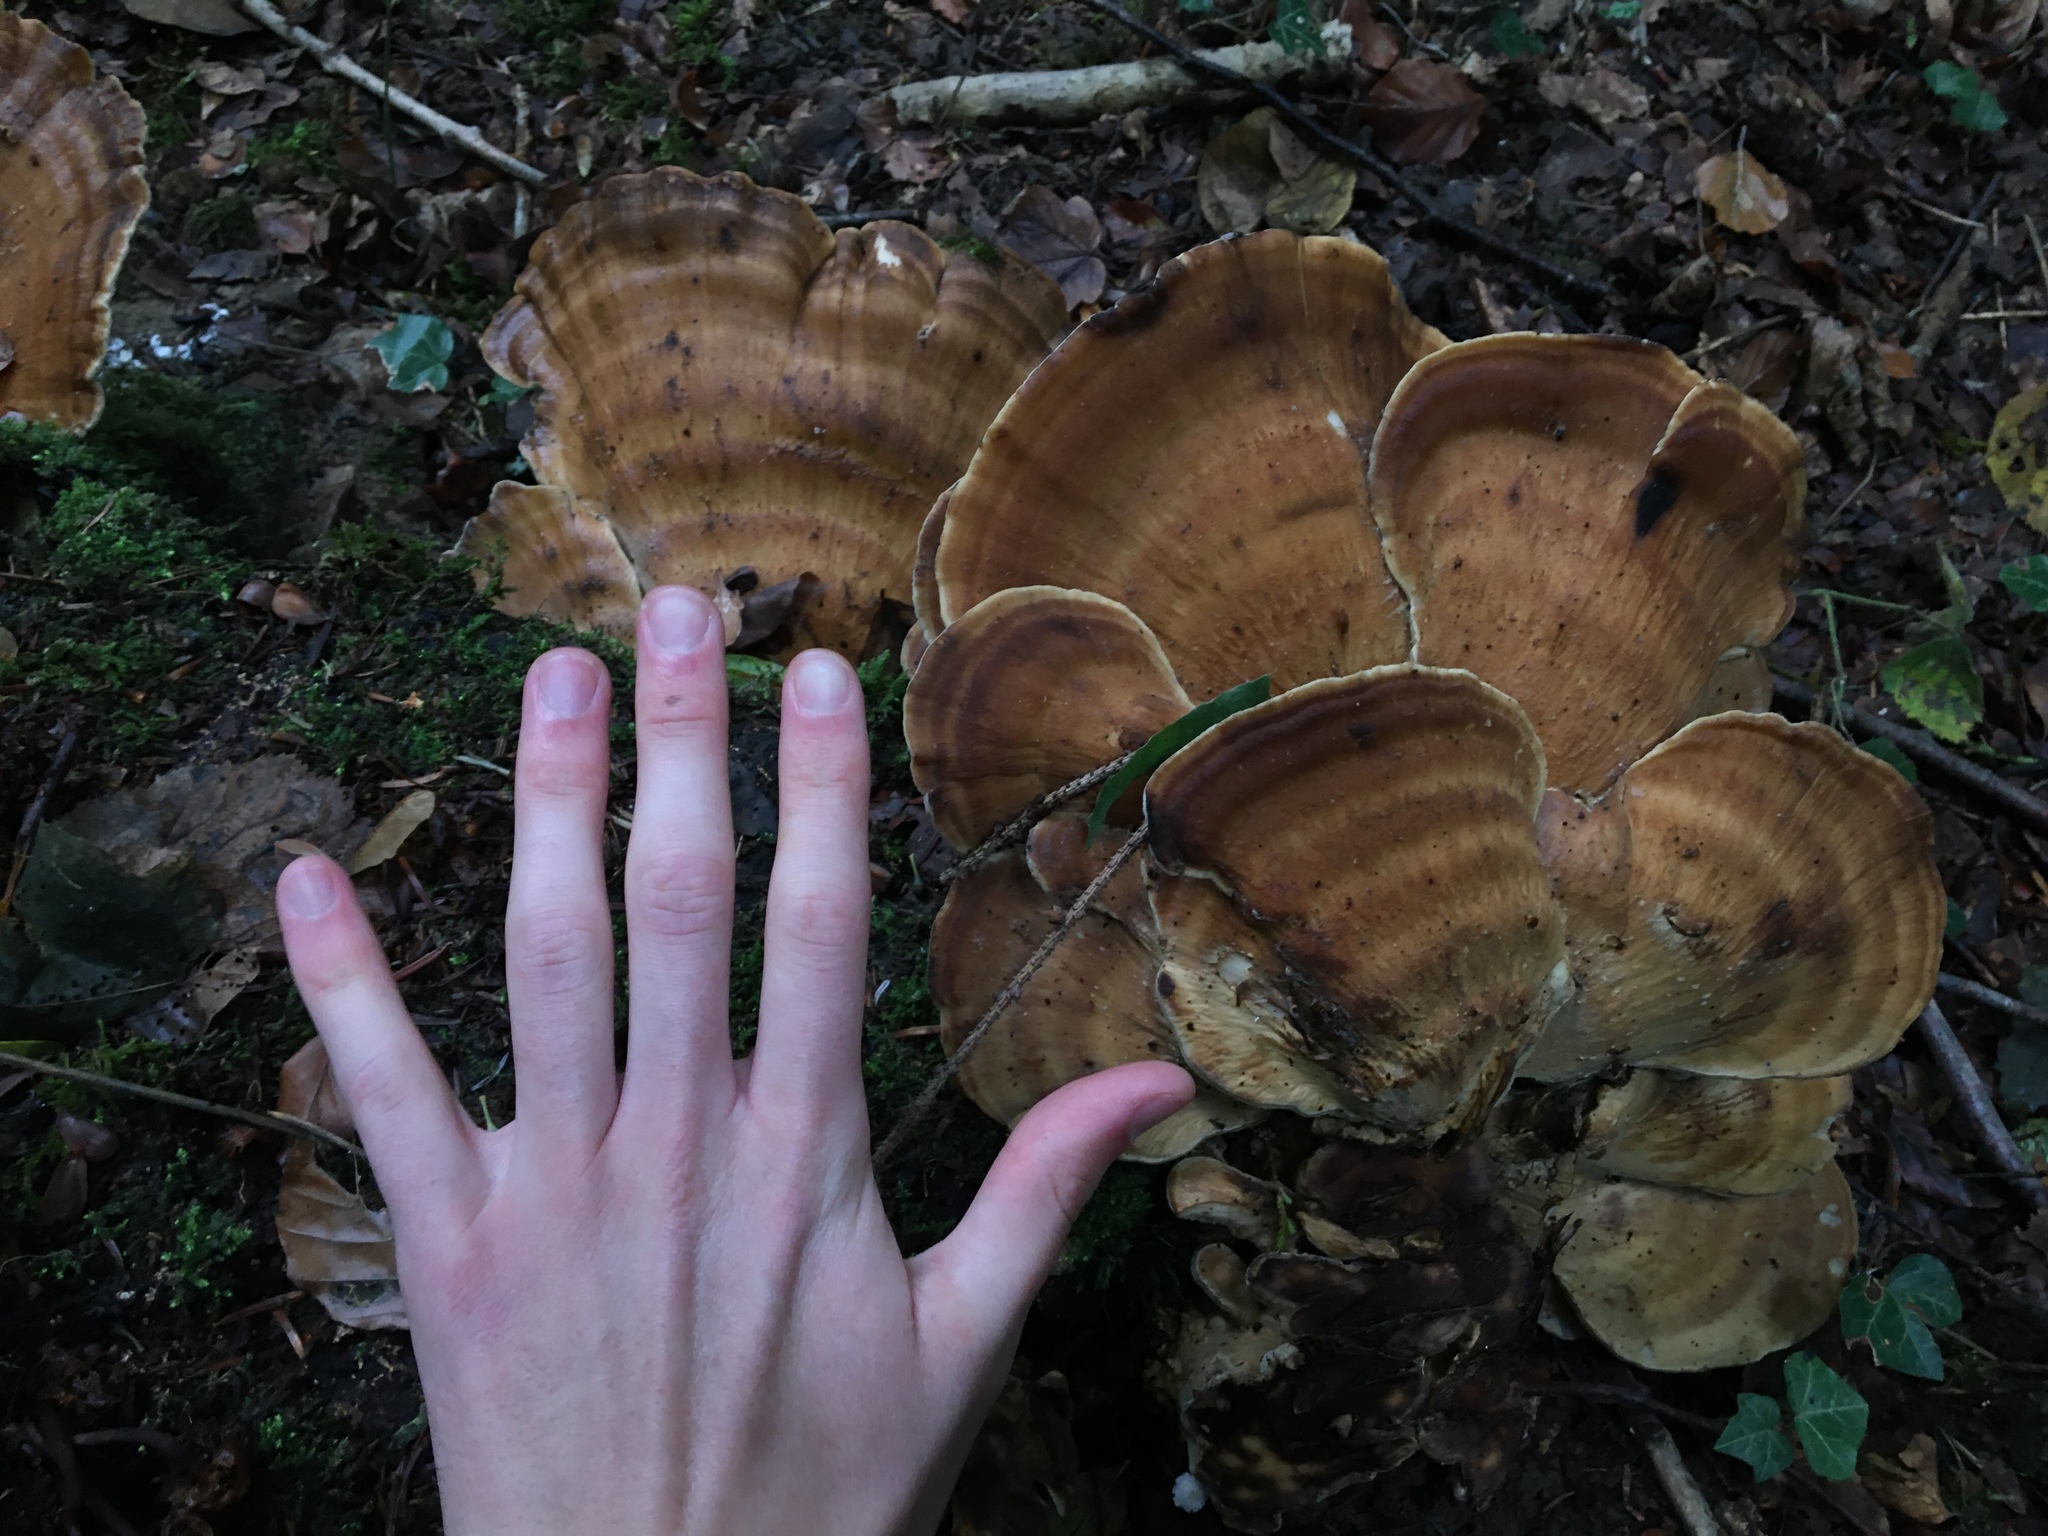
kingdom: Fungi
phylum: Basidiomycota
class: Agaricomycetes
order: Polyporales
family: Meripilaceae
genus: Meripilus
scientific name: Meripilus giganteus
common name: Giant polypore
